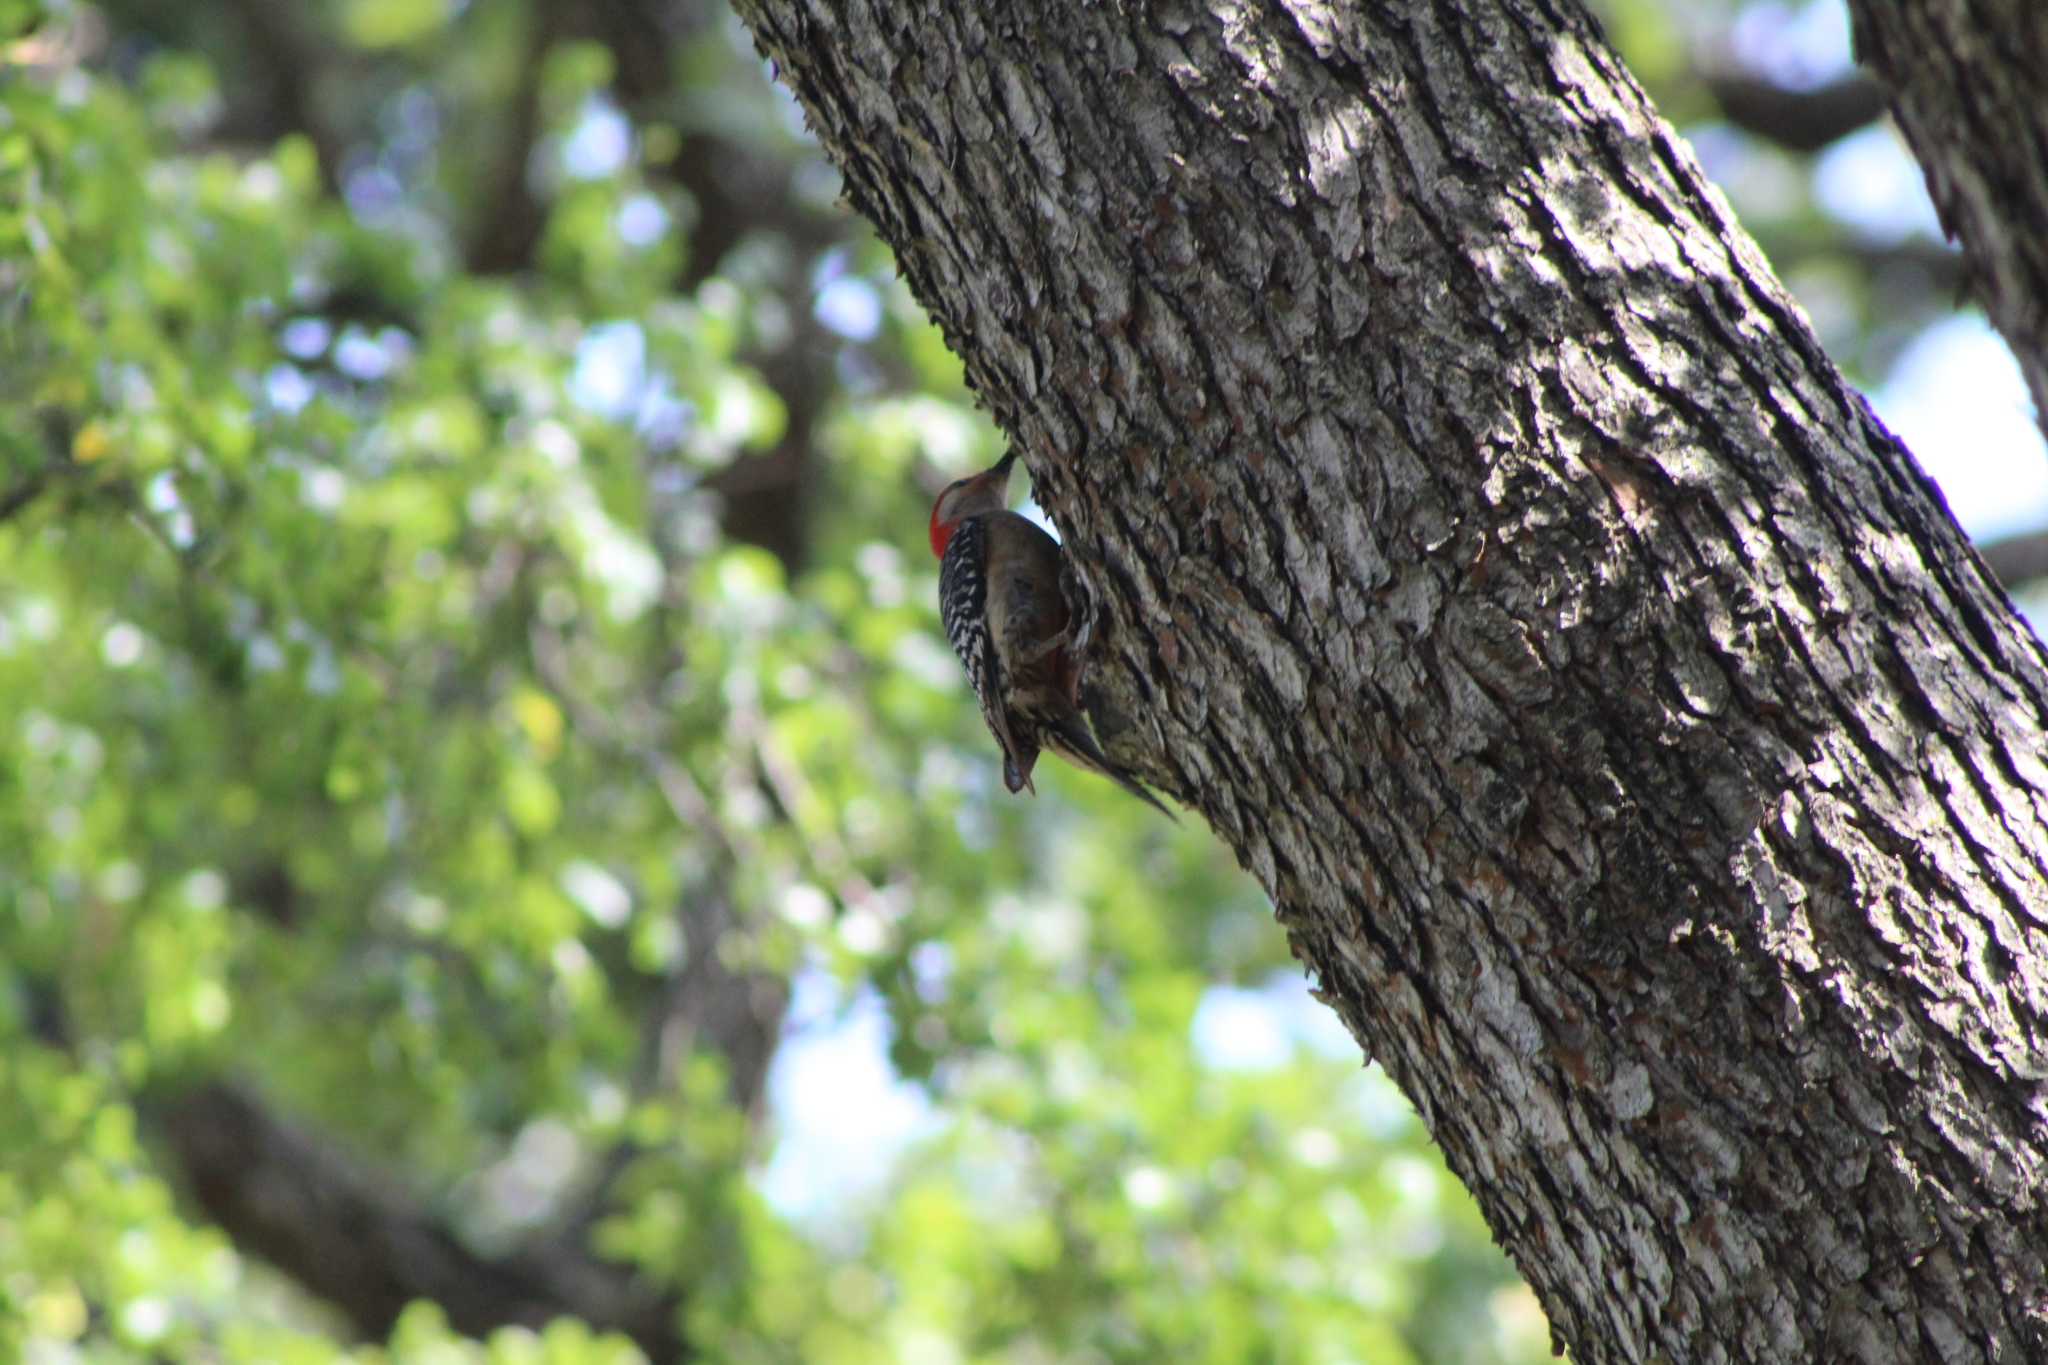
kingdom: Animalia
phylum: Chordata
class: Aves
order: Piciformes
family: Picidae
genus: Melanerpes
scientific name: Melanerpes carolinus
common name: Red-bellied woodpecker
